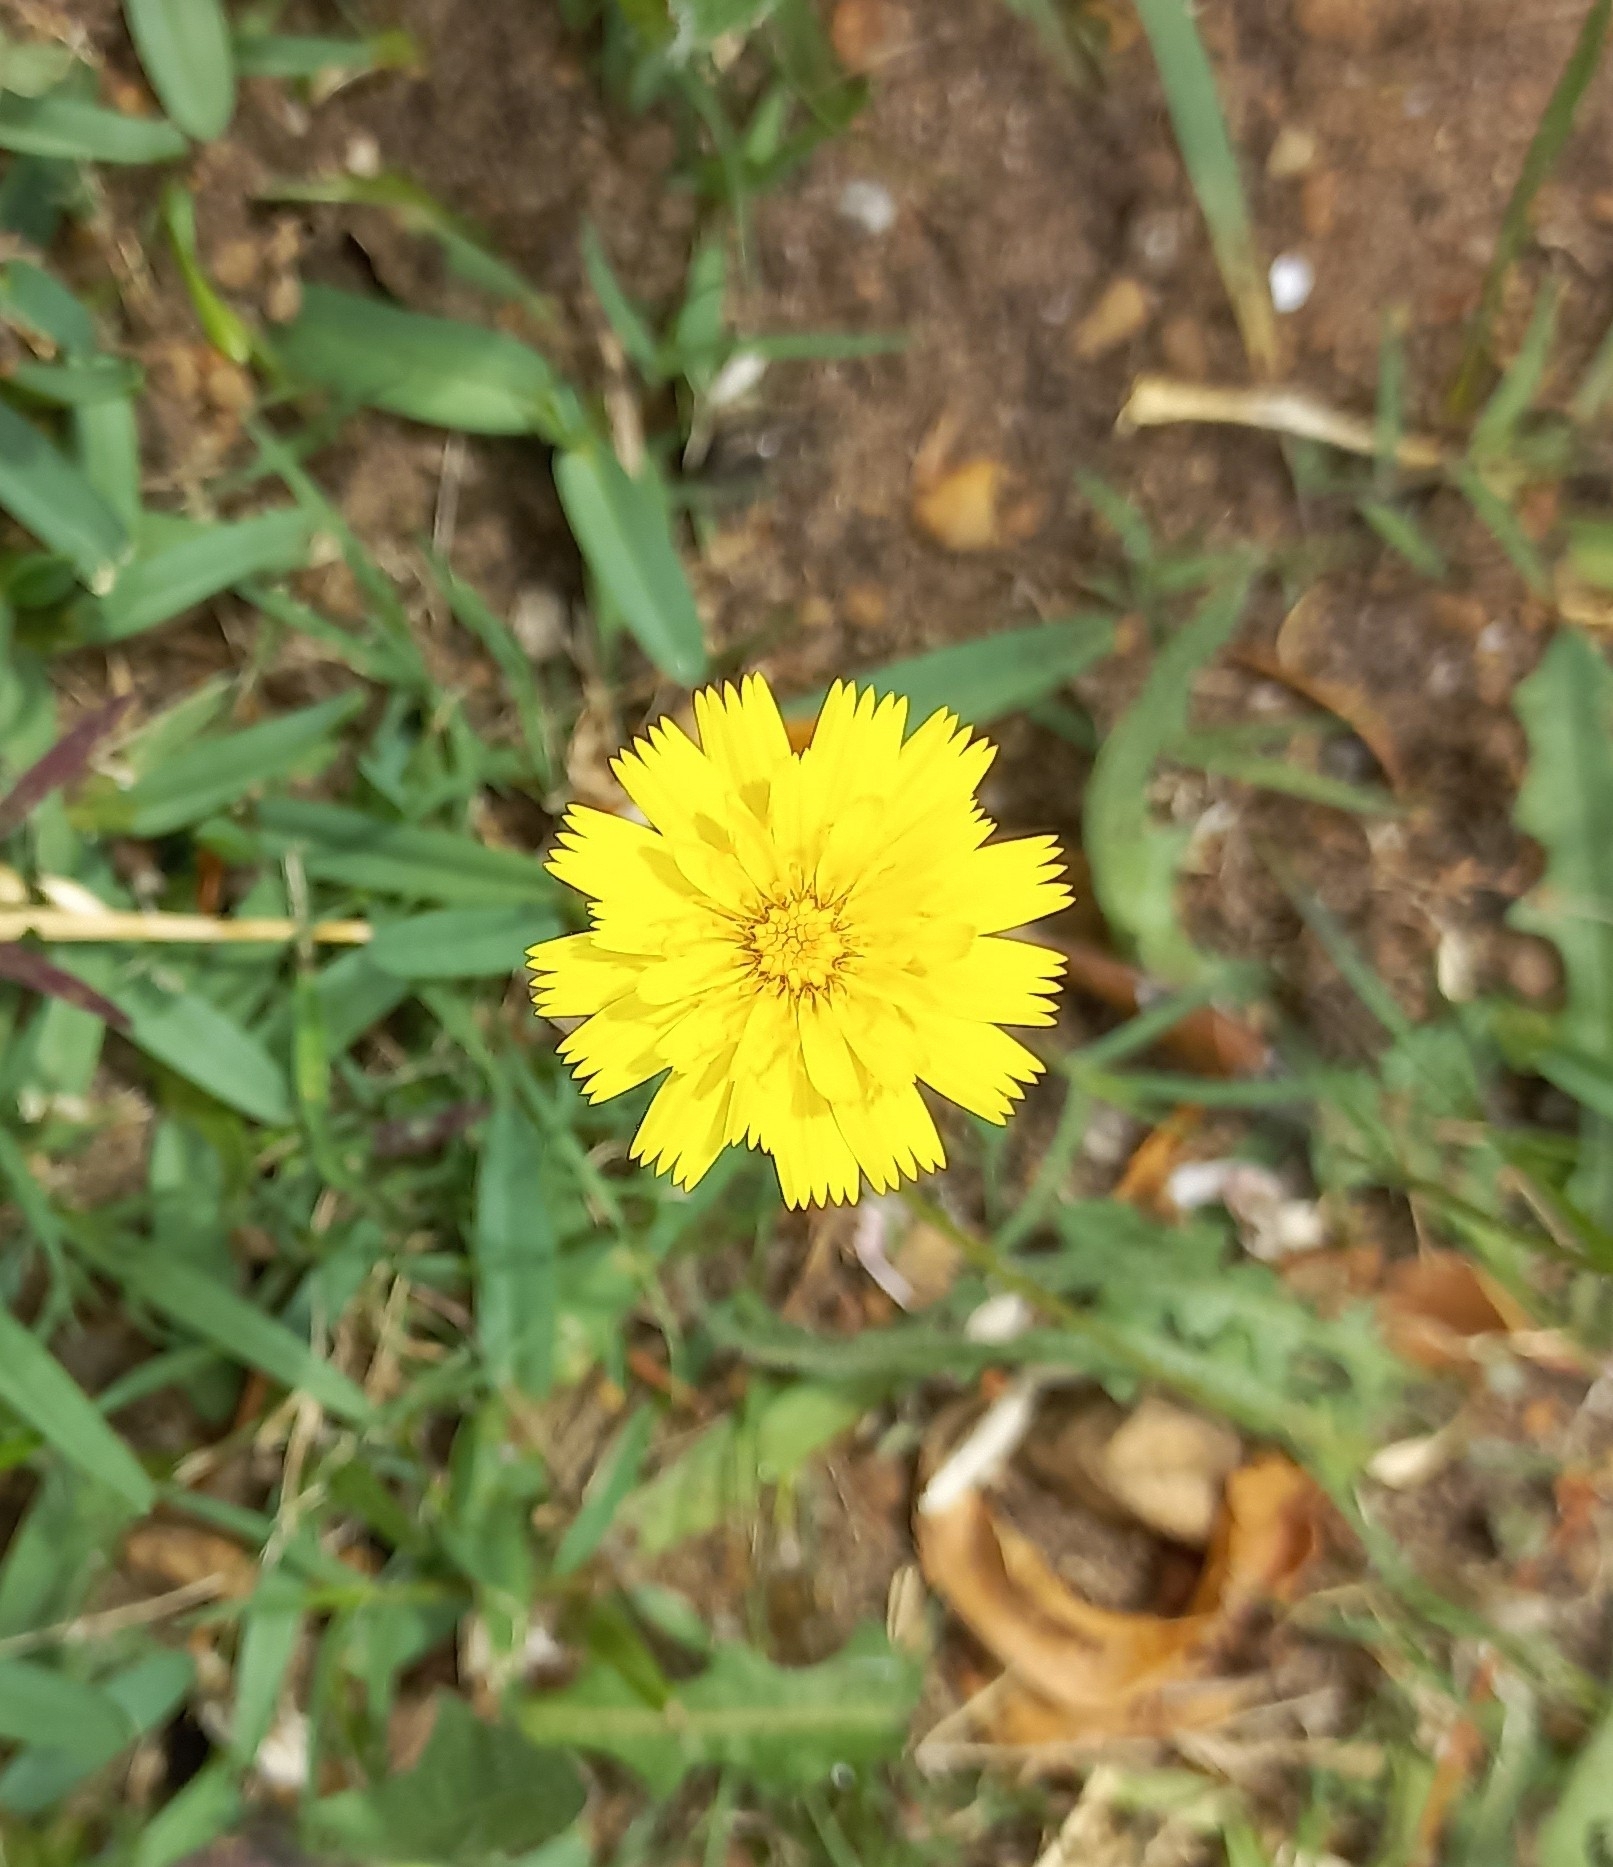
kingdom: Plantae
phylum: Tracheophyta
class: Magnoliopsida
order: Asterales
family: Asteraceae
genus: Hypochaeris
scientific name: Hypochaeris radicata
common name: Flatweed
